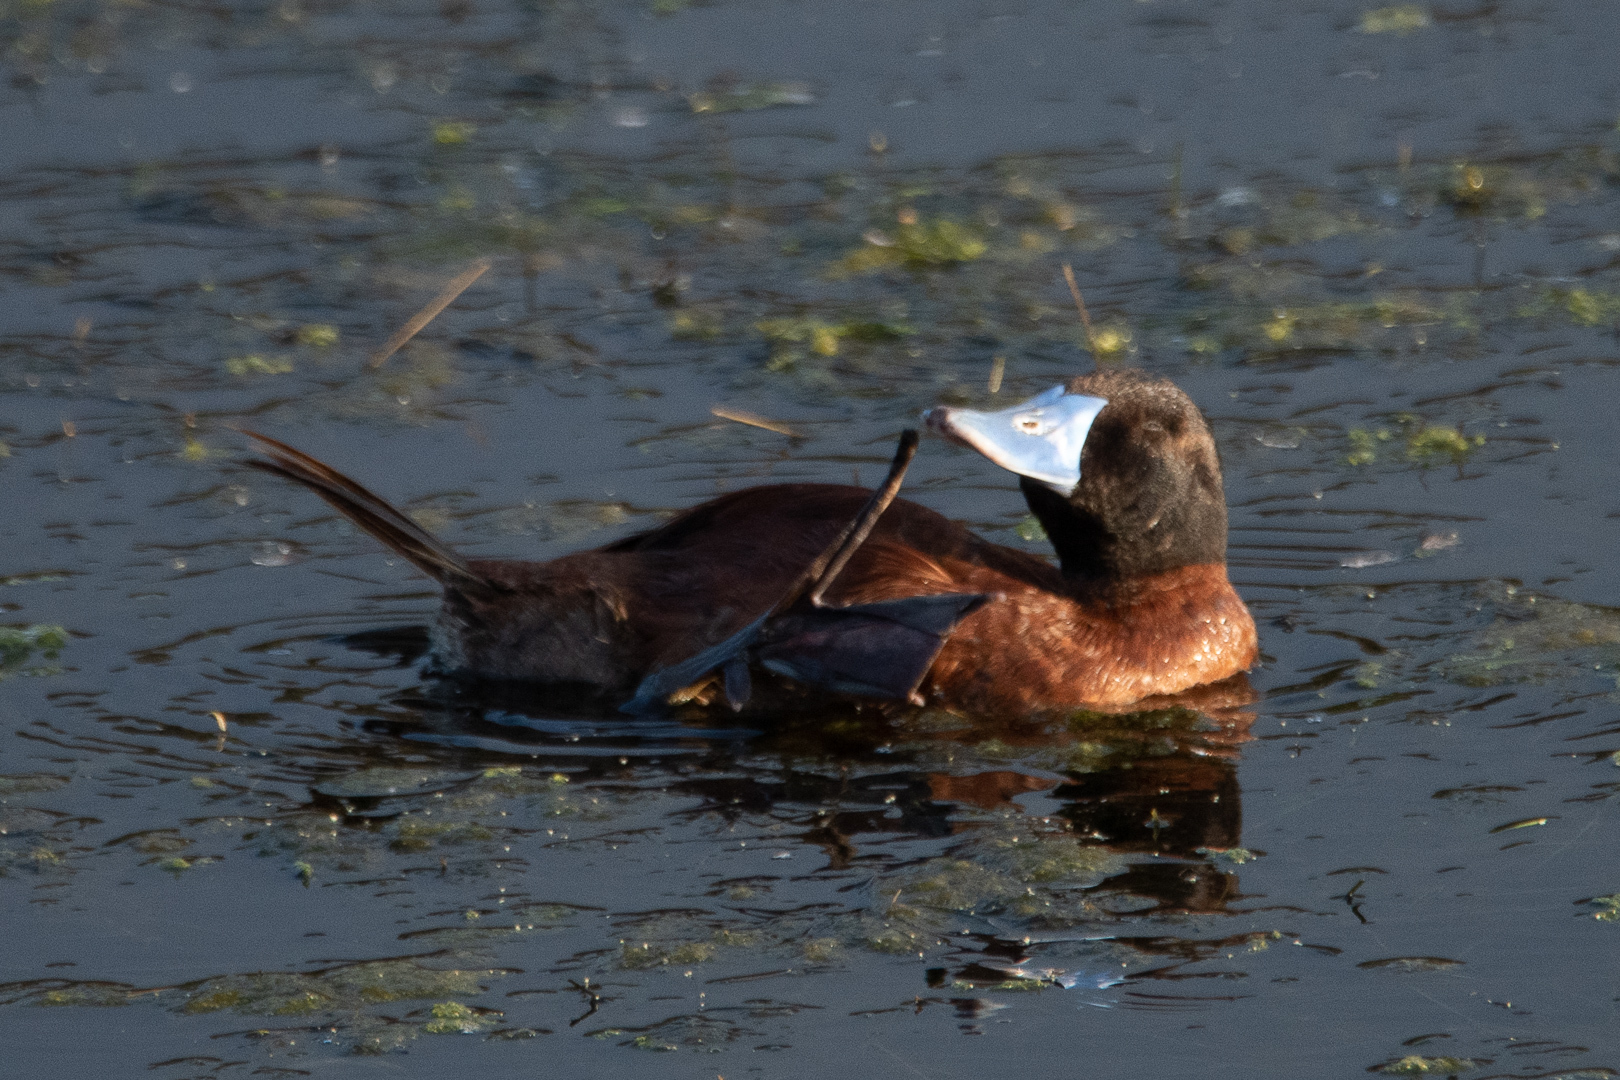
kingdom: Animalia
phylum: Chordata
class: Aves
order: Anseriformes
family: Anatidae
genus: Oxyura
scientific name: Oxyura vittata
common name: Lake duck
